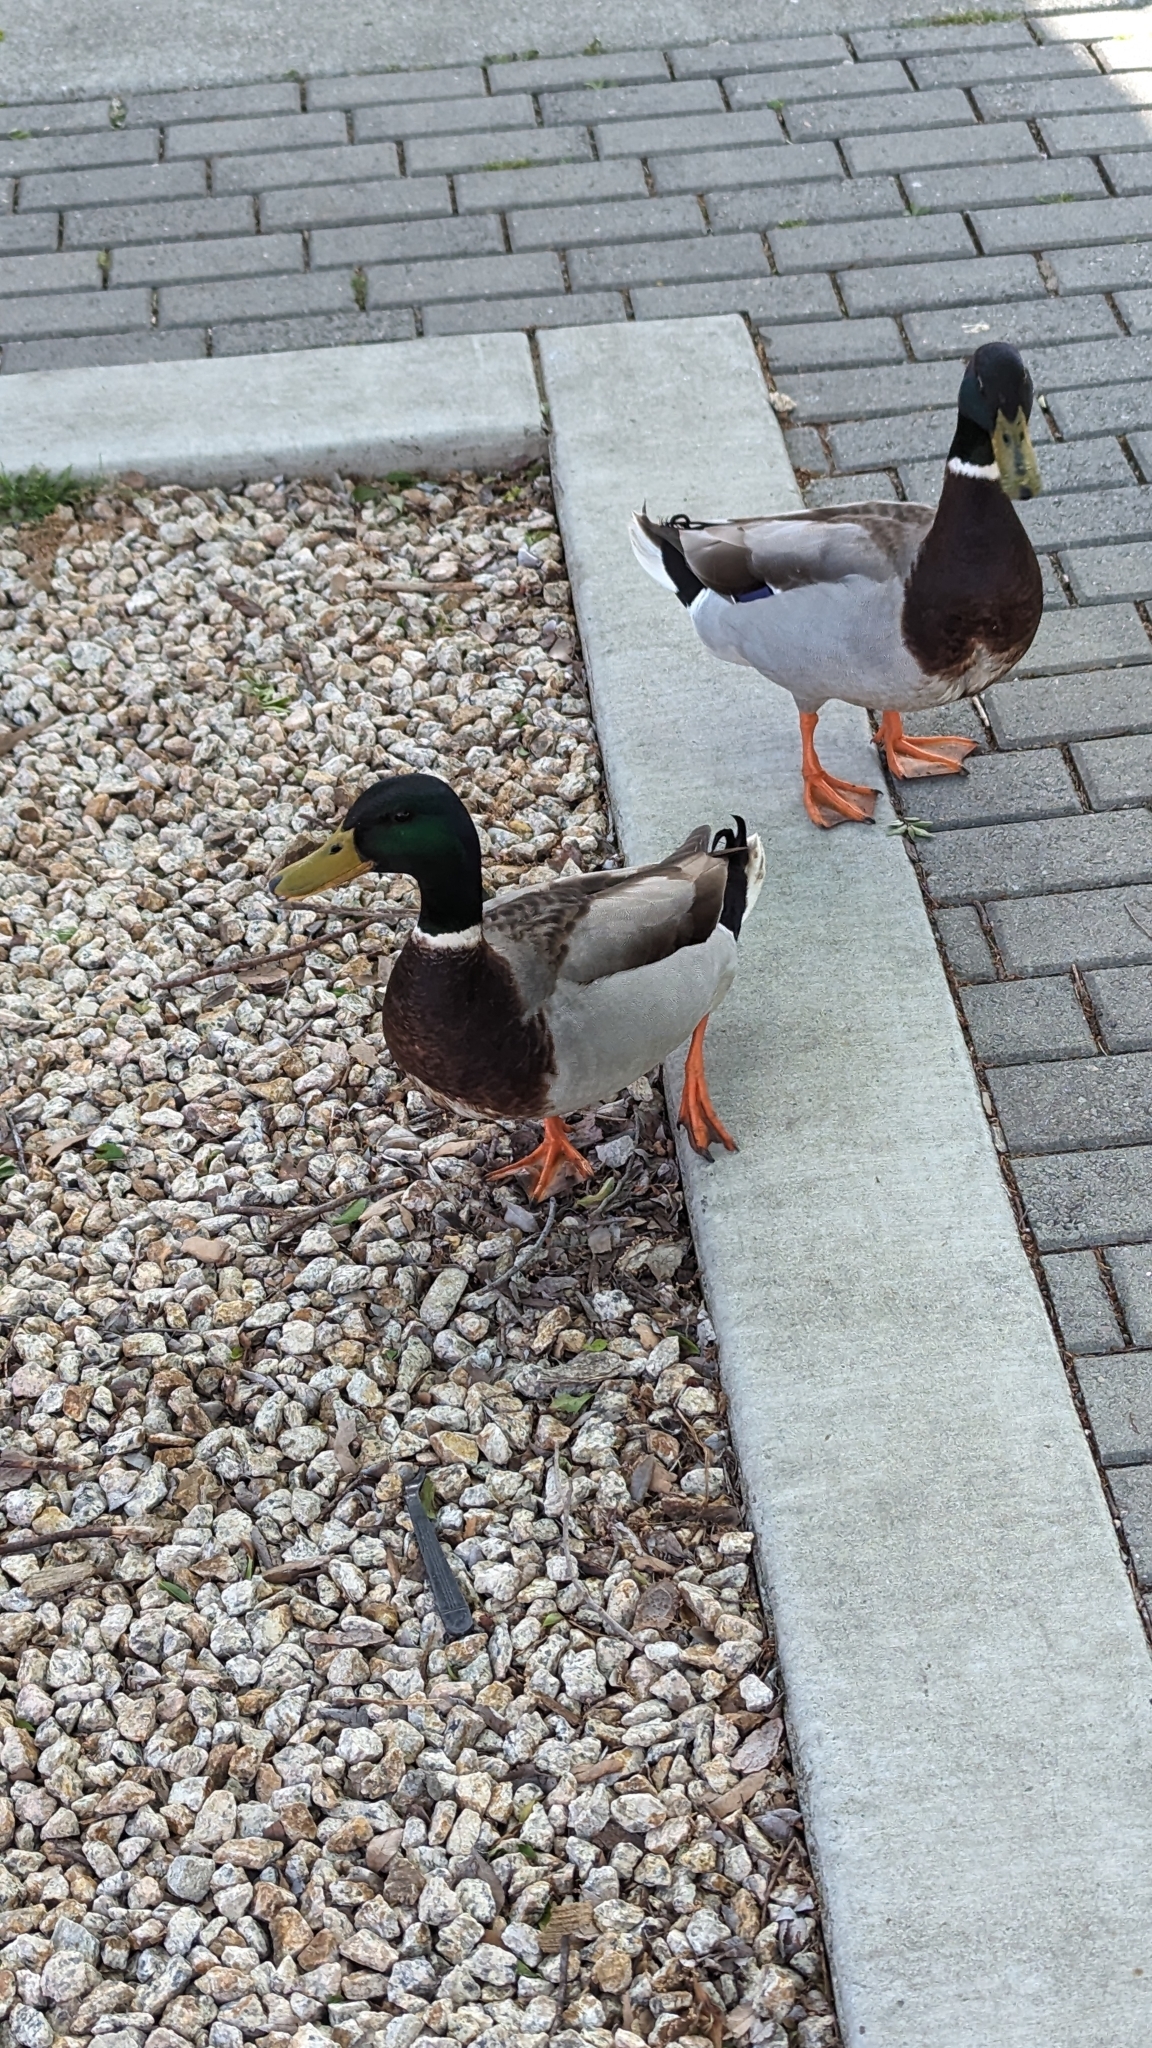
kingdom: Animalia
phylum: Chordata
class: Aves
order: Anseriformes
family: Anatidae
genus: Anas
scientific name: Anas platyrhynchos
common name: Mallard
